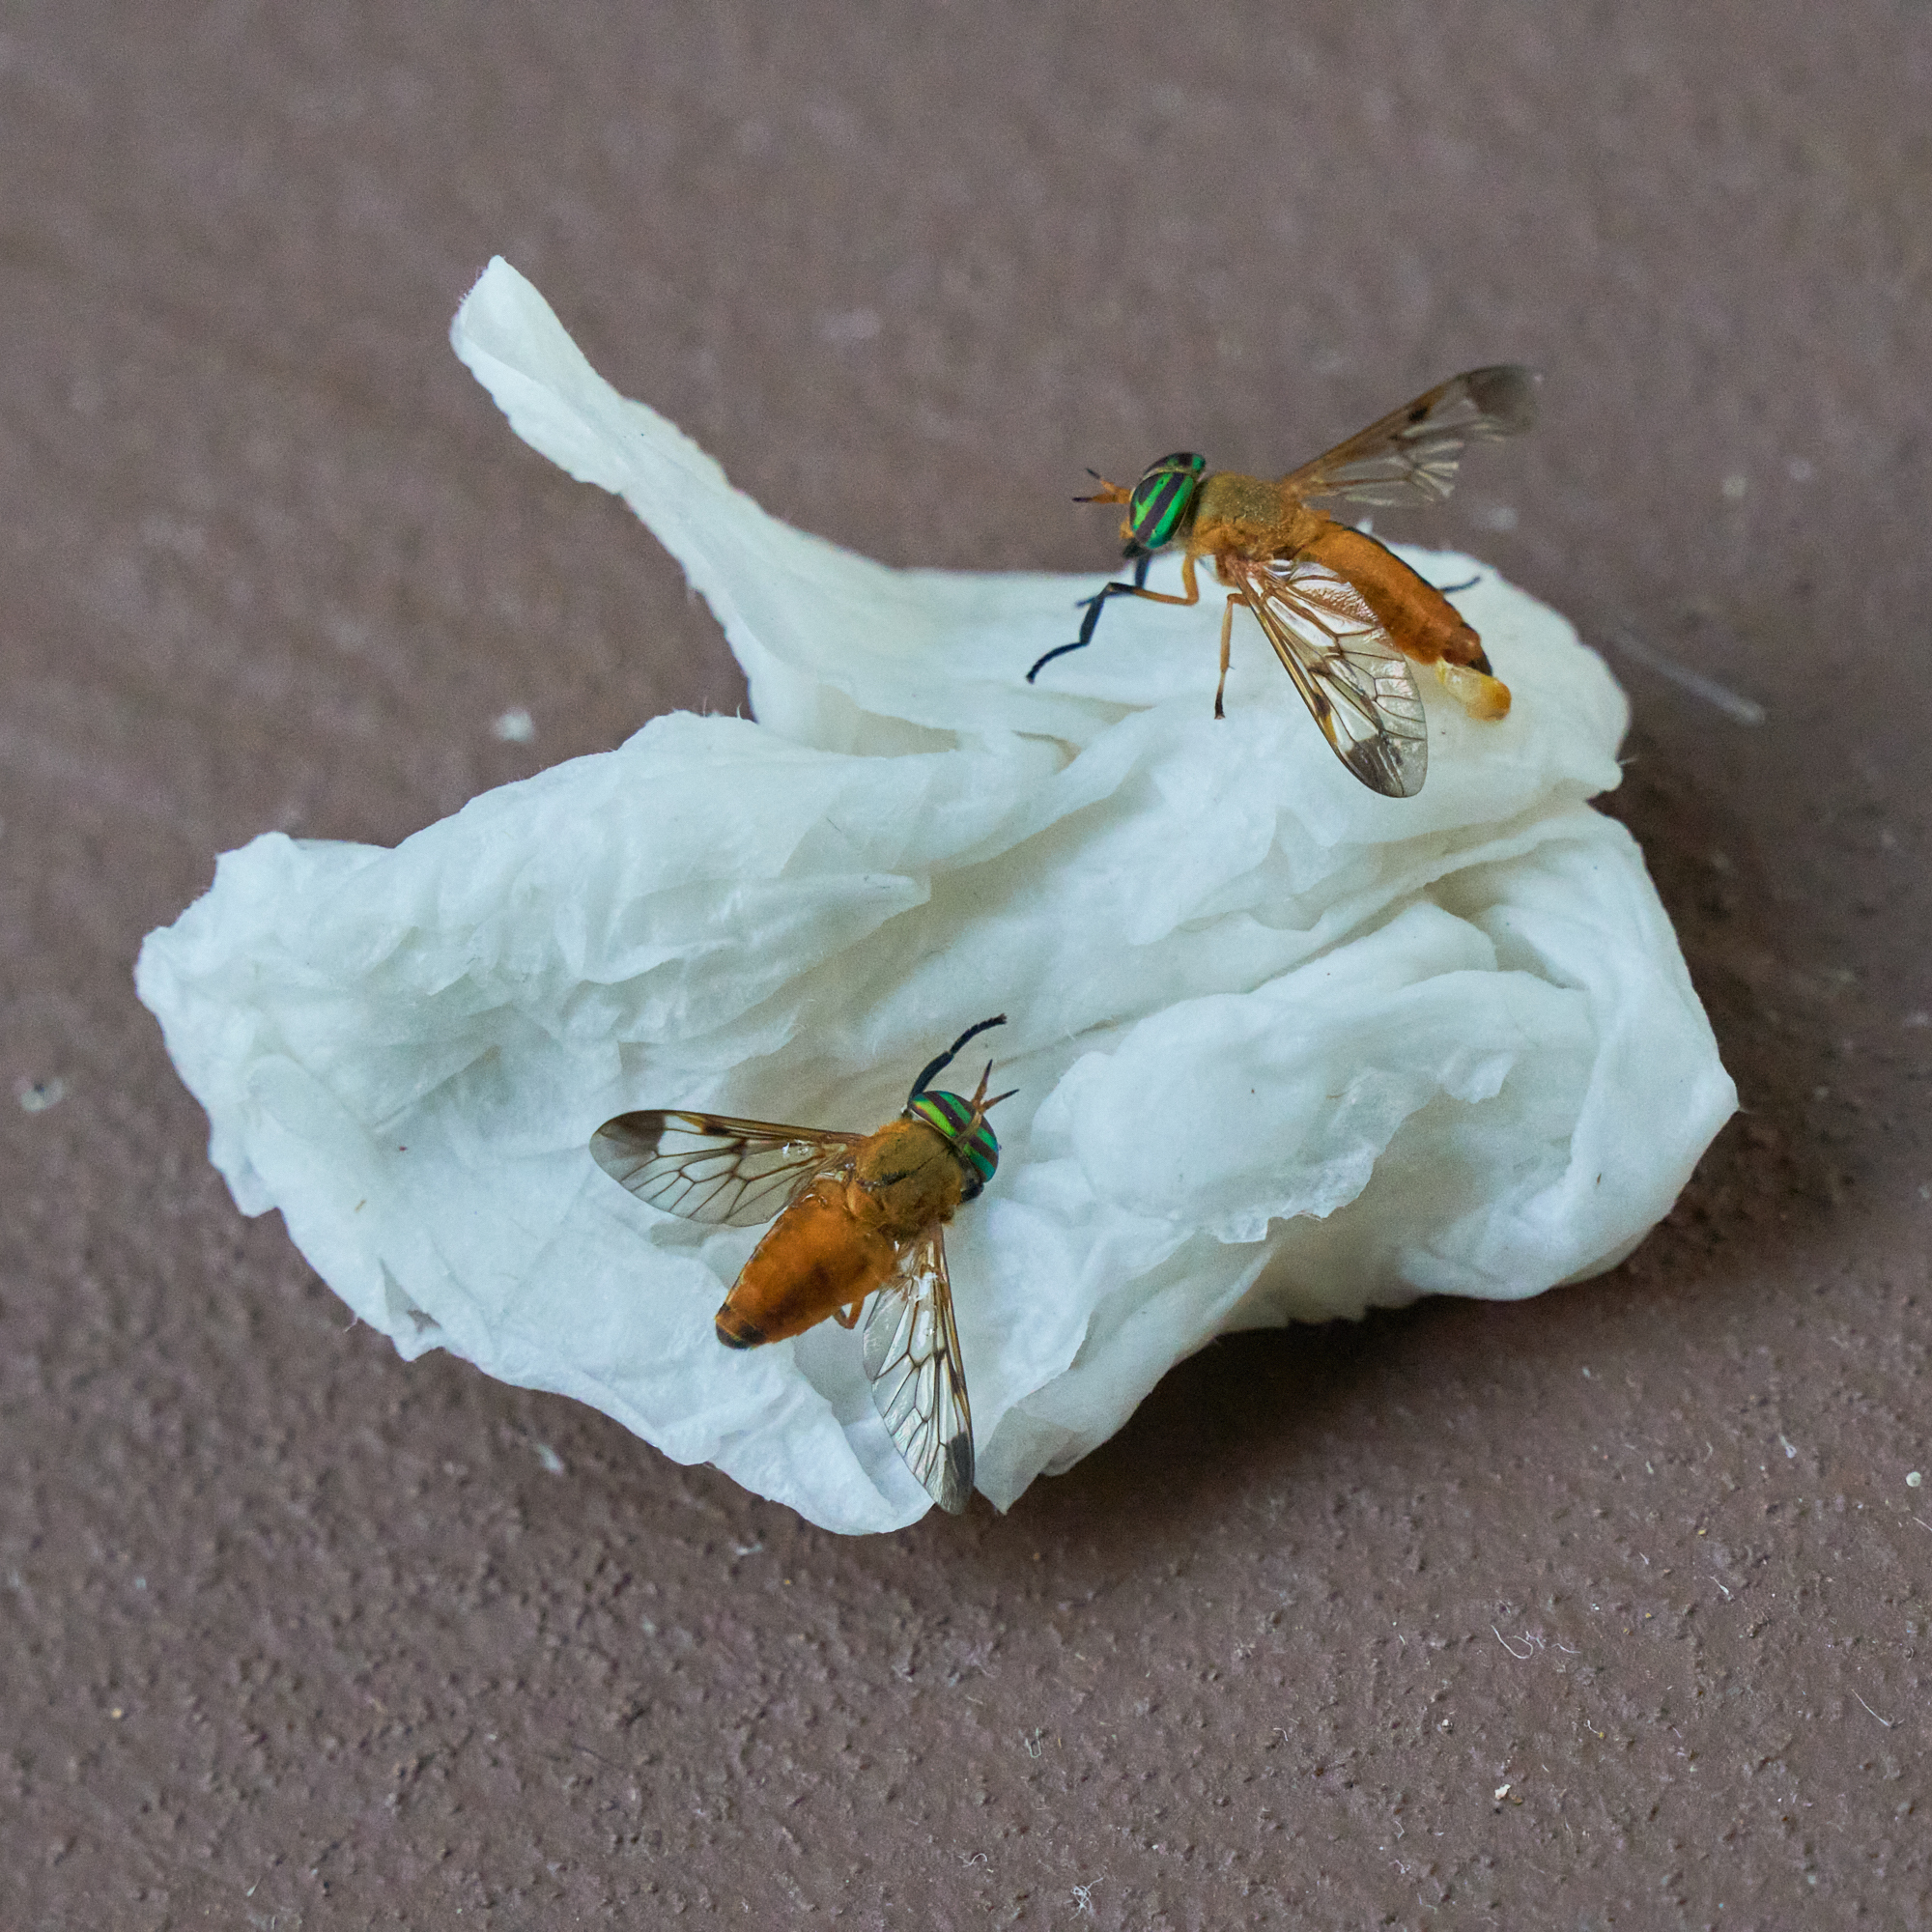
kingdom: Animalia
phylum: Arthropoda
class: Insecta
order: Diptera
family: Tabanidae
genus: Diachlorus
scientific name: Diachlorus ferrugatus
